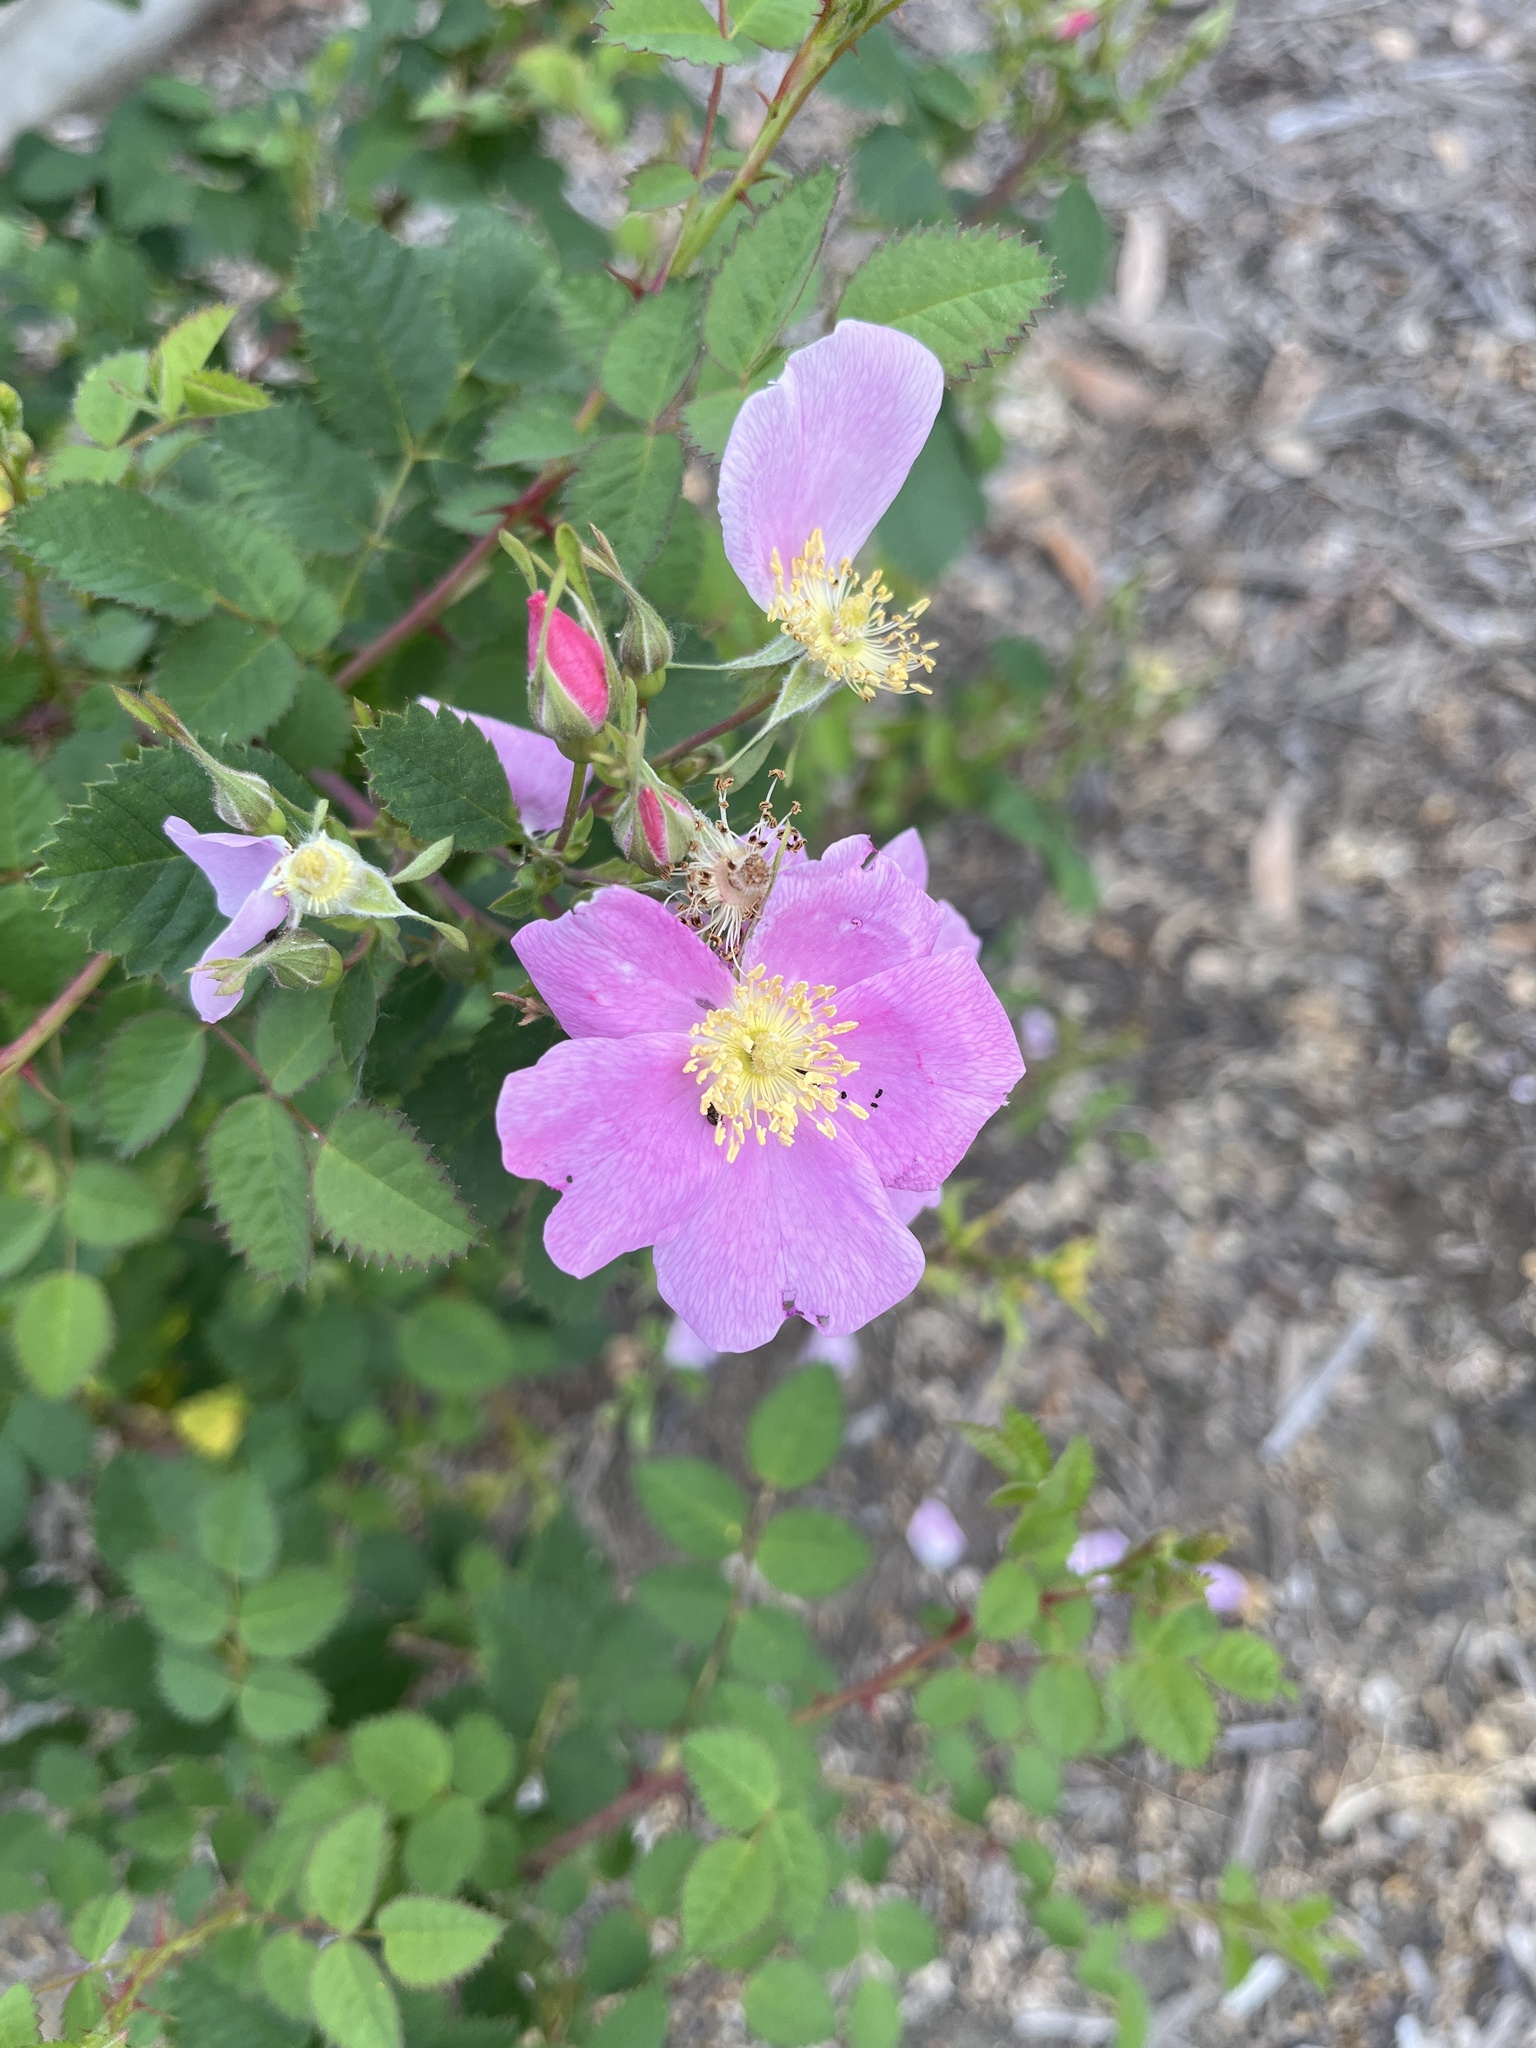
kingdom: Plantae
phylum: Tracheophyta
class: Magnoliopsida
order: Rosales
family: Rosaceae
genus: Rosa
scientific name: Rosa californica
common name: California rose
